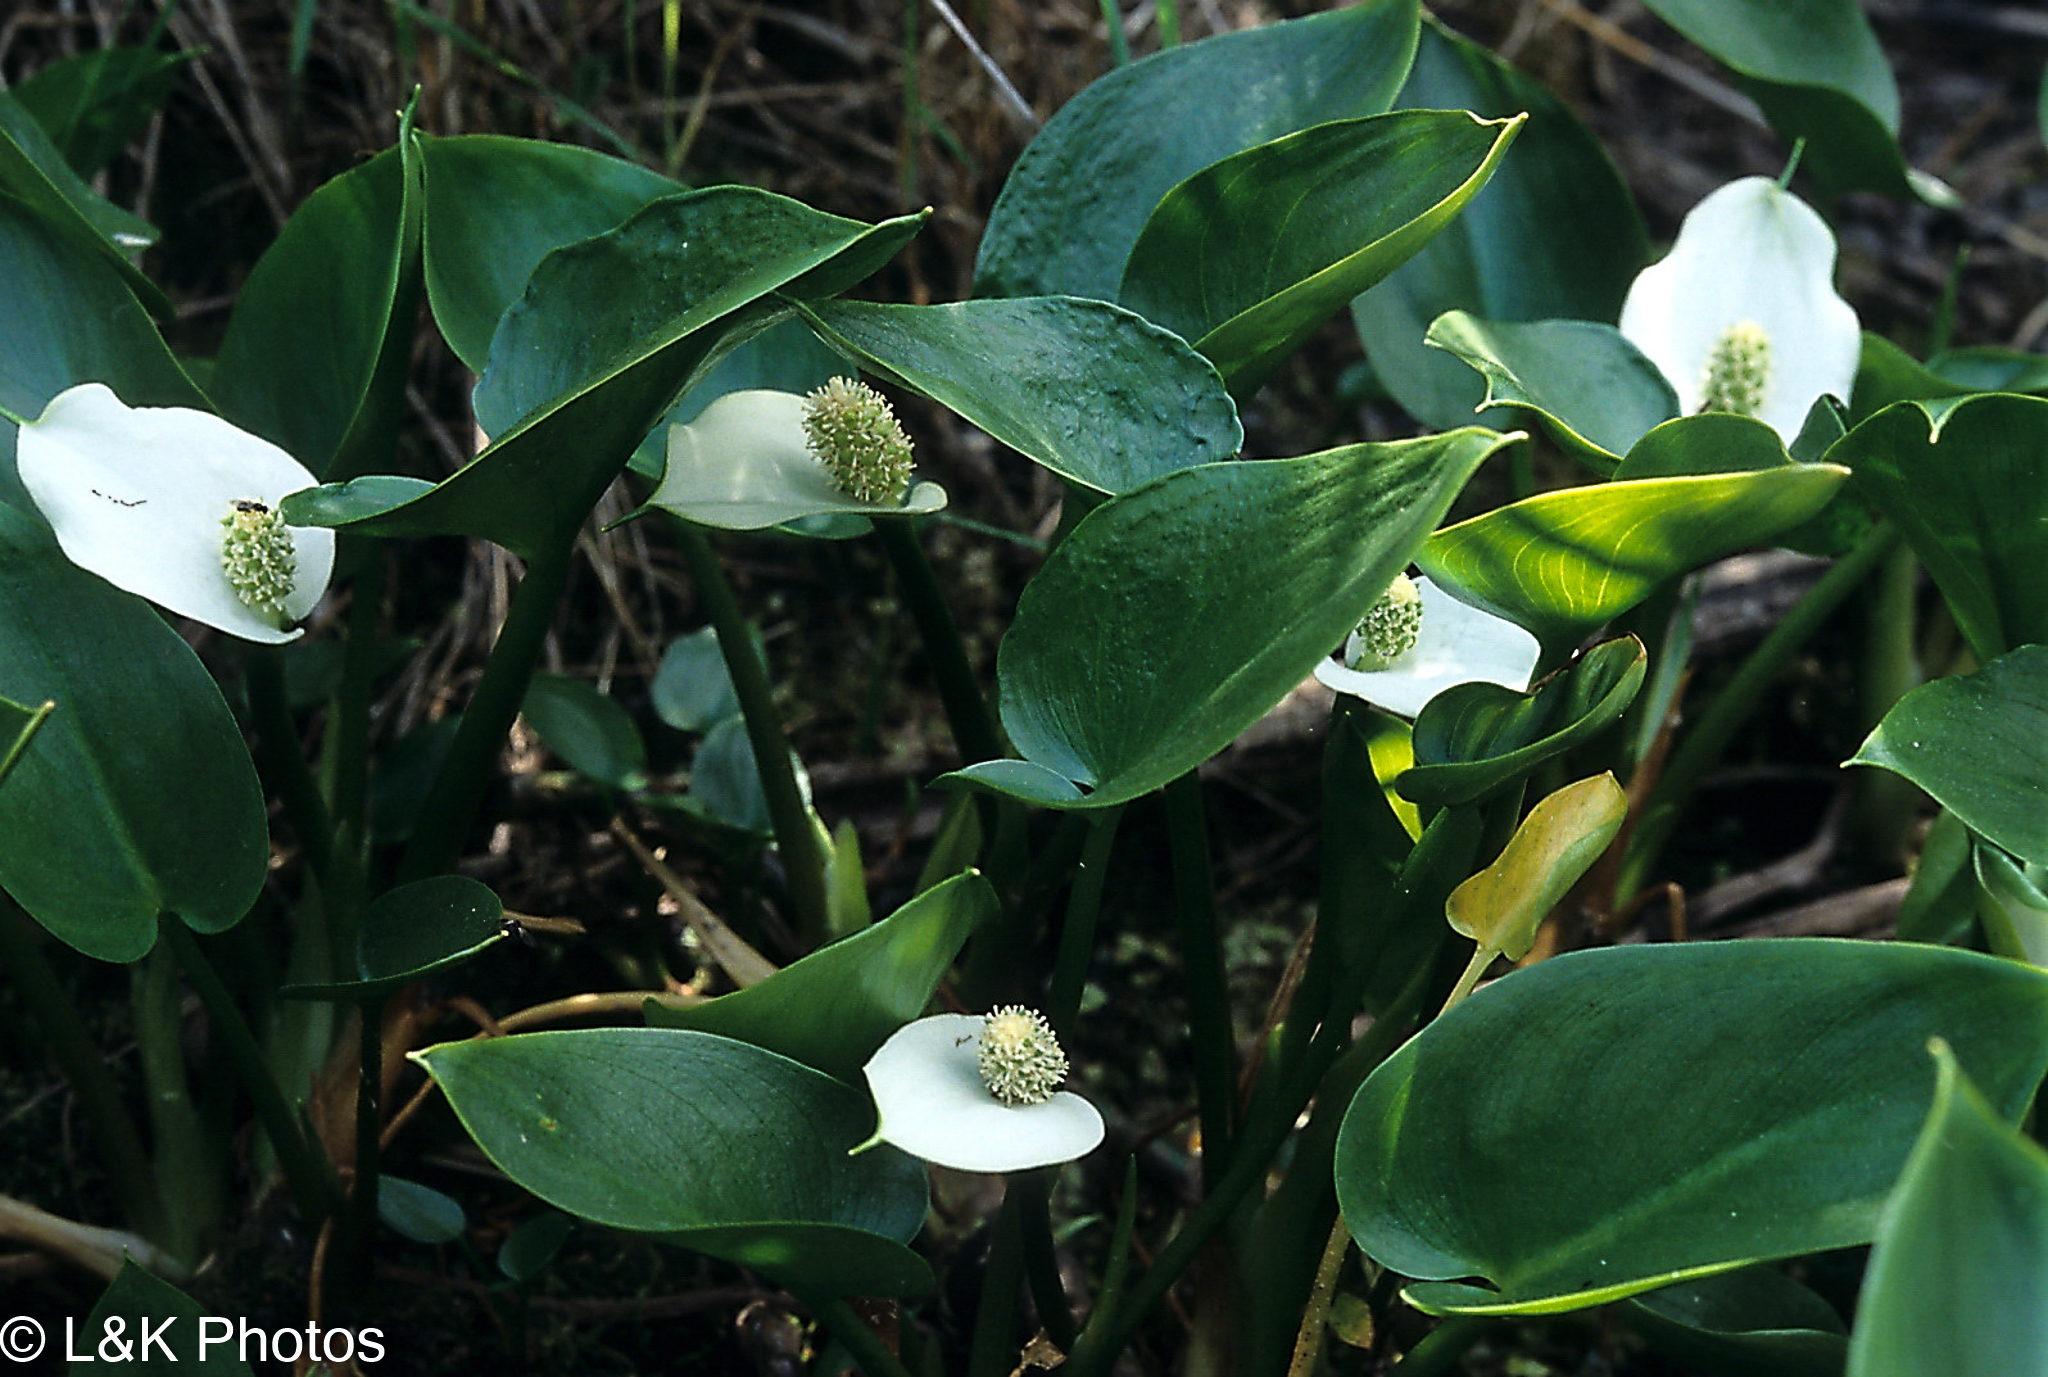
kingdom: Plantae
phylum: Tracheophyta
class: Liliopsida
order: Alismatales
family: Araceae
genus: Calla
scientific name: Calla palustris
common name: Bog arum
